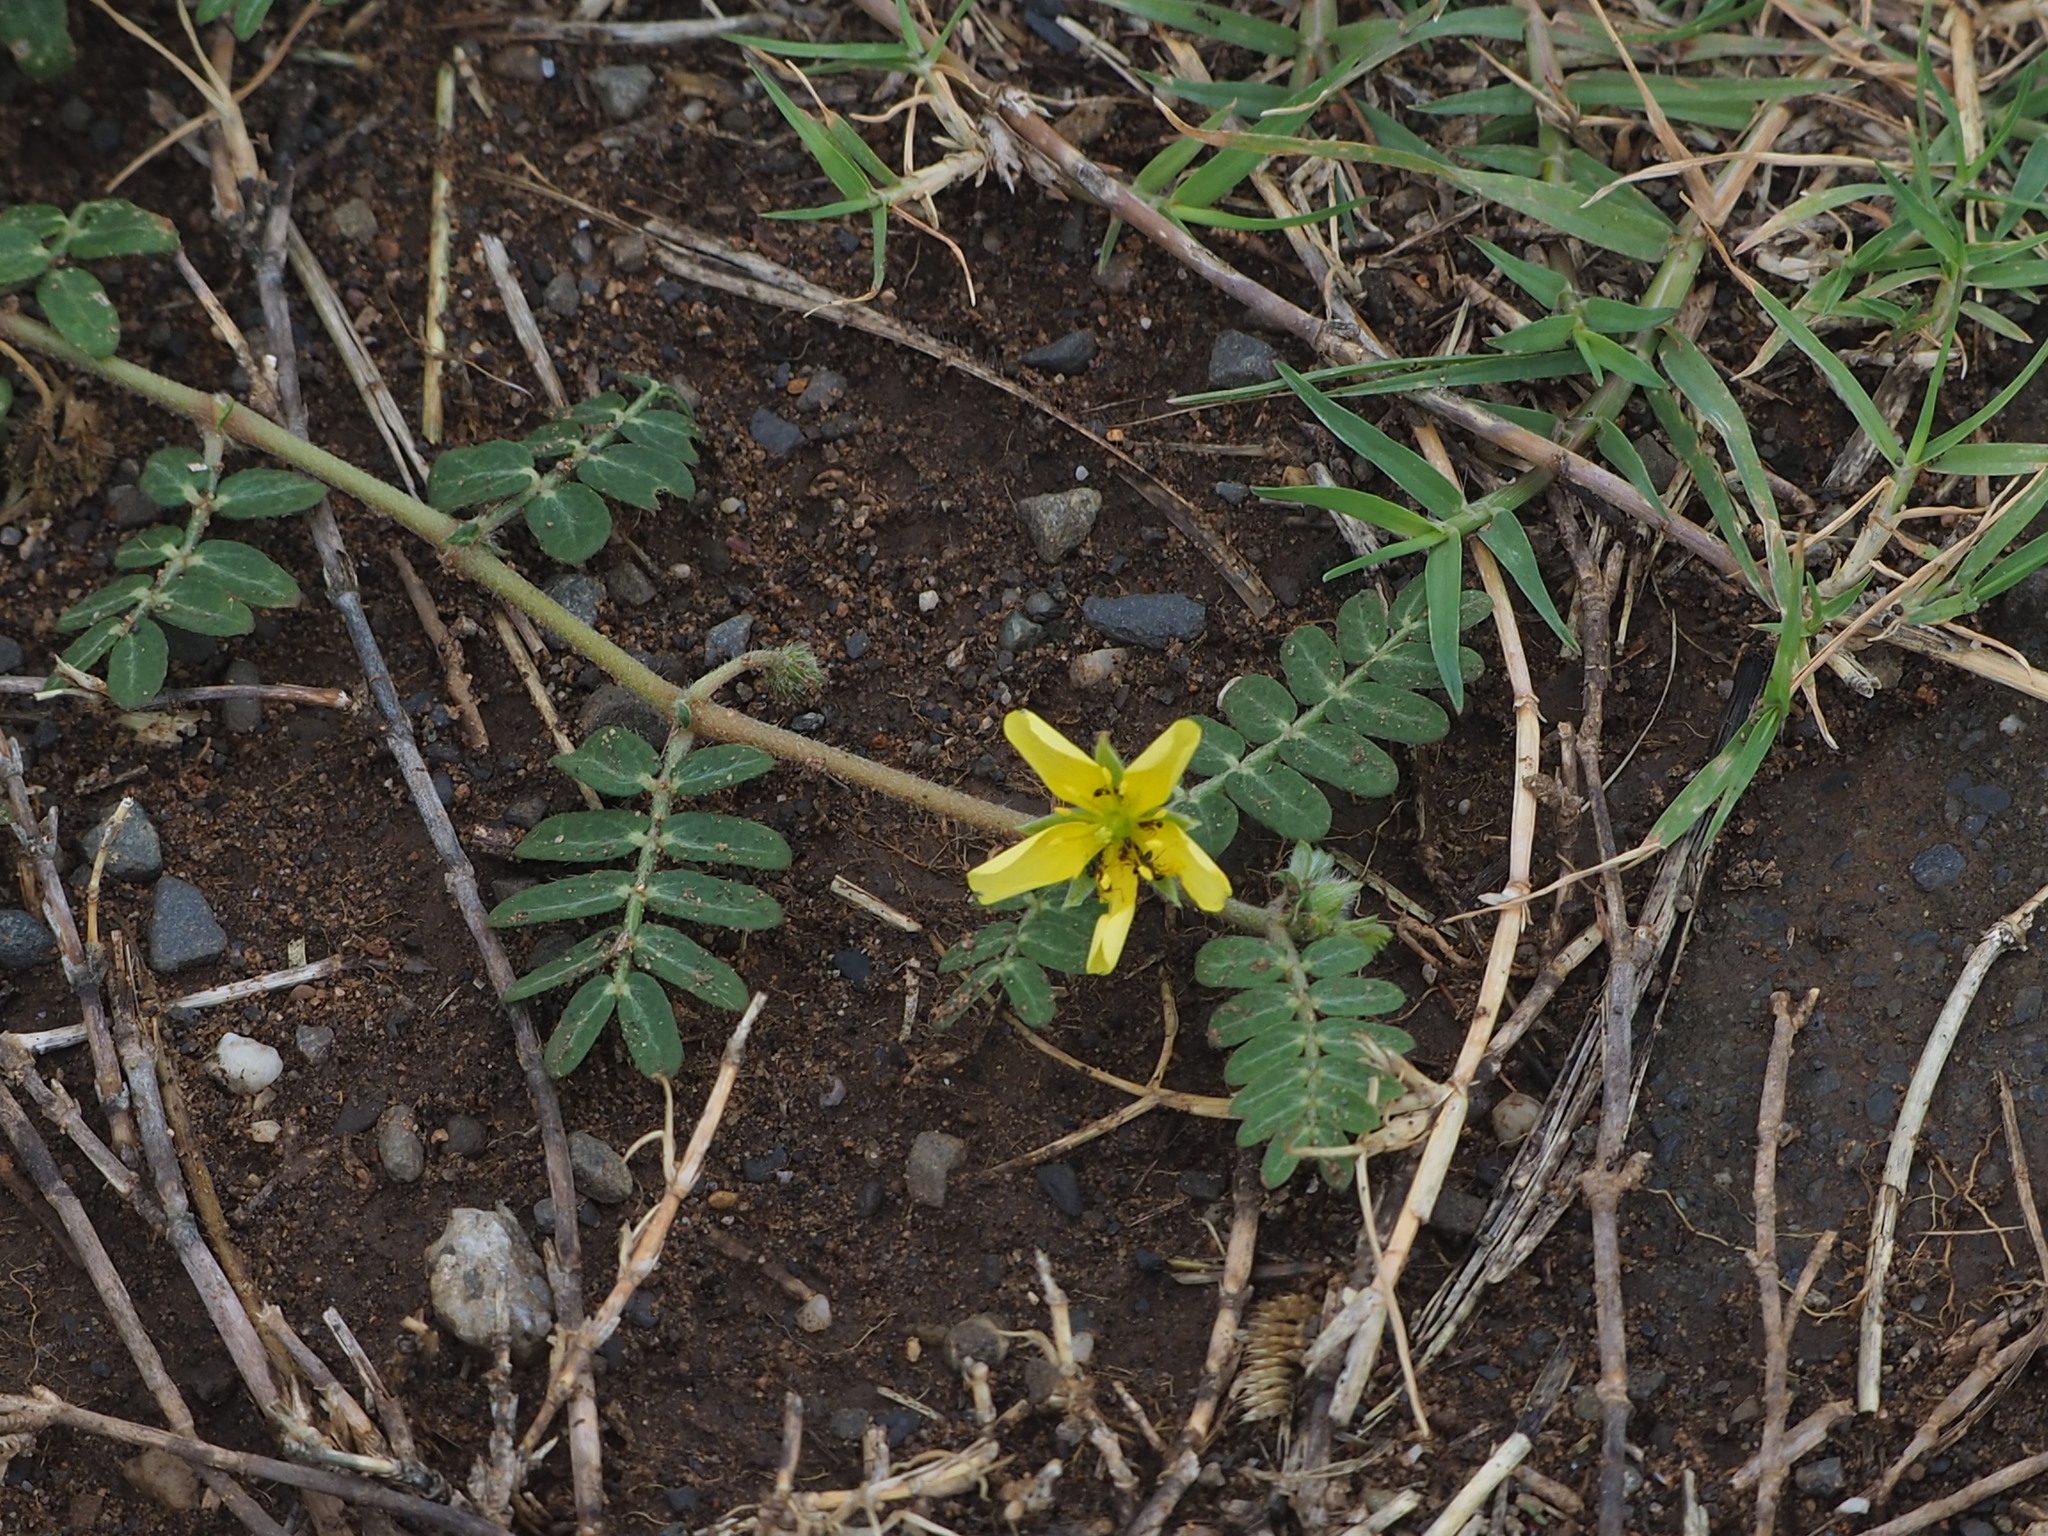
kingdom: Plantae
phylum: Tracheophyta
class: Magnoliopsida
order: Zygophyllales
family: Zygophyllaceae
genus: Tribulus
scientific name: Tribulus cistoides
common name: Jamaican feverplant
